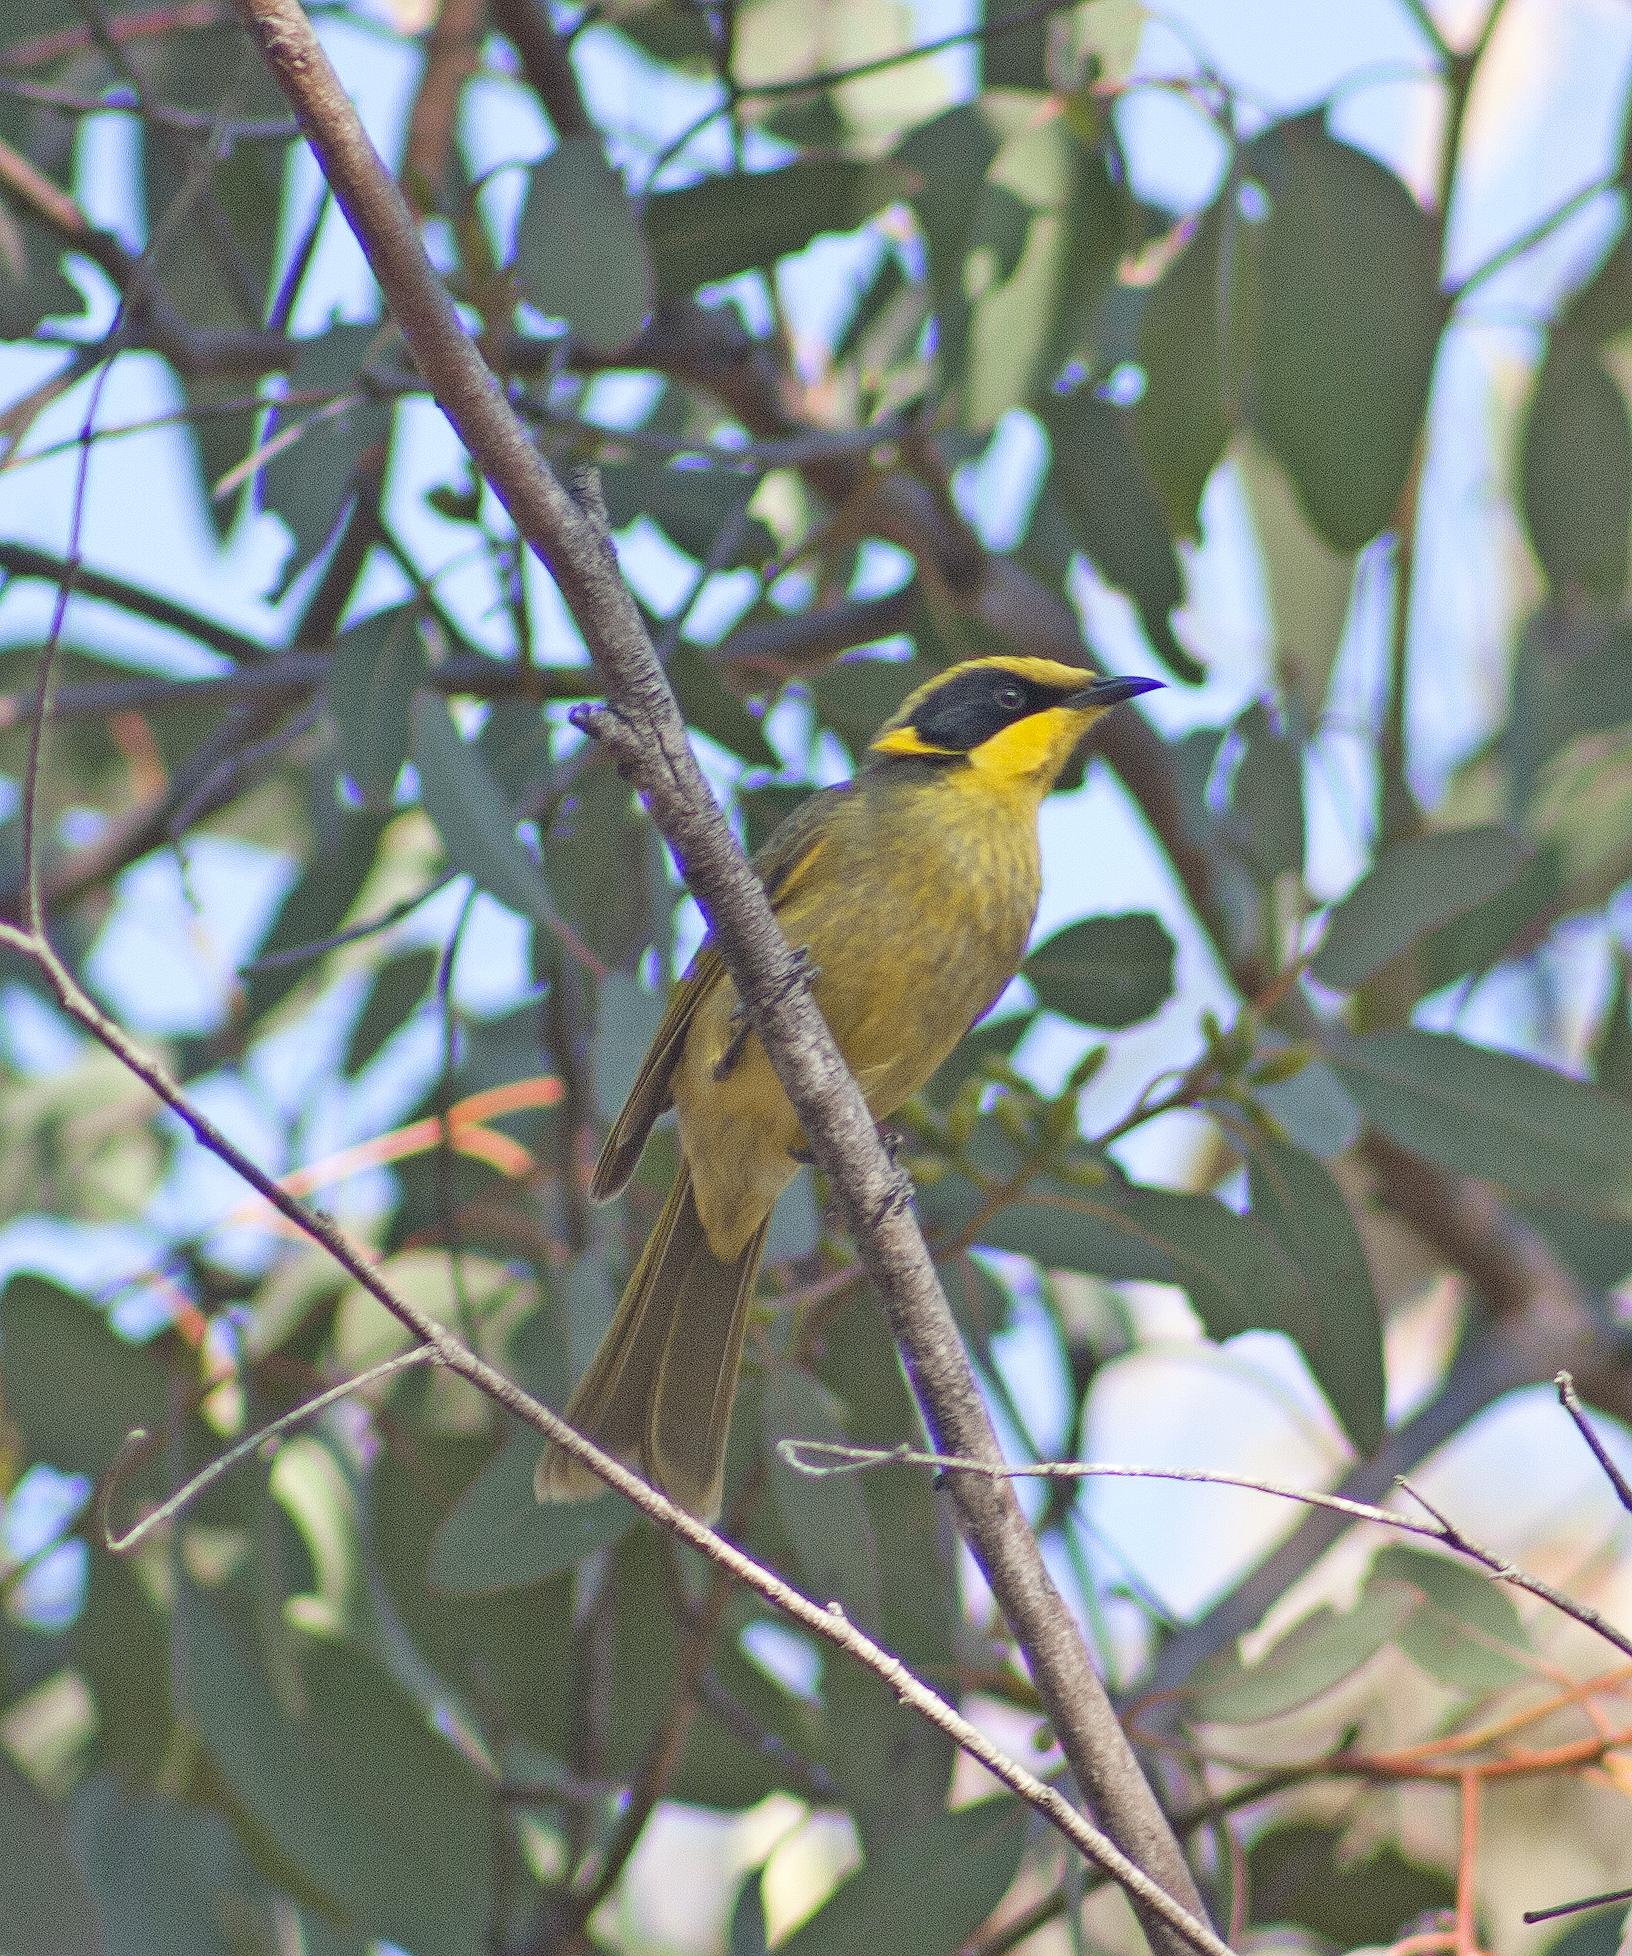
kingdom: Animalia
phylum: Chordata
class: Aves
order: Passeriformes
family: Meliphagidae
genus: Lichenostomus
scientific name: Lichenostomus melanops
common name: Yellow-tufted honeyeater
